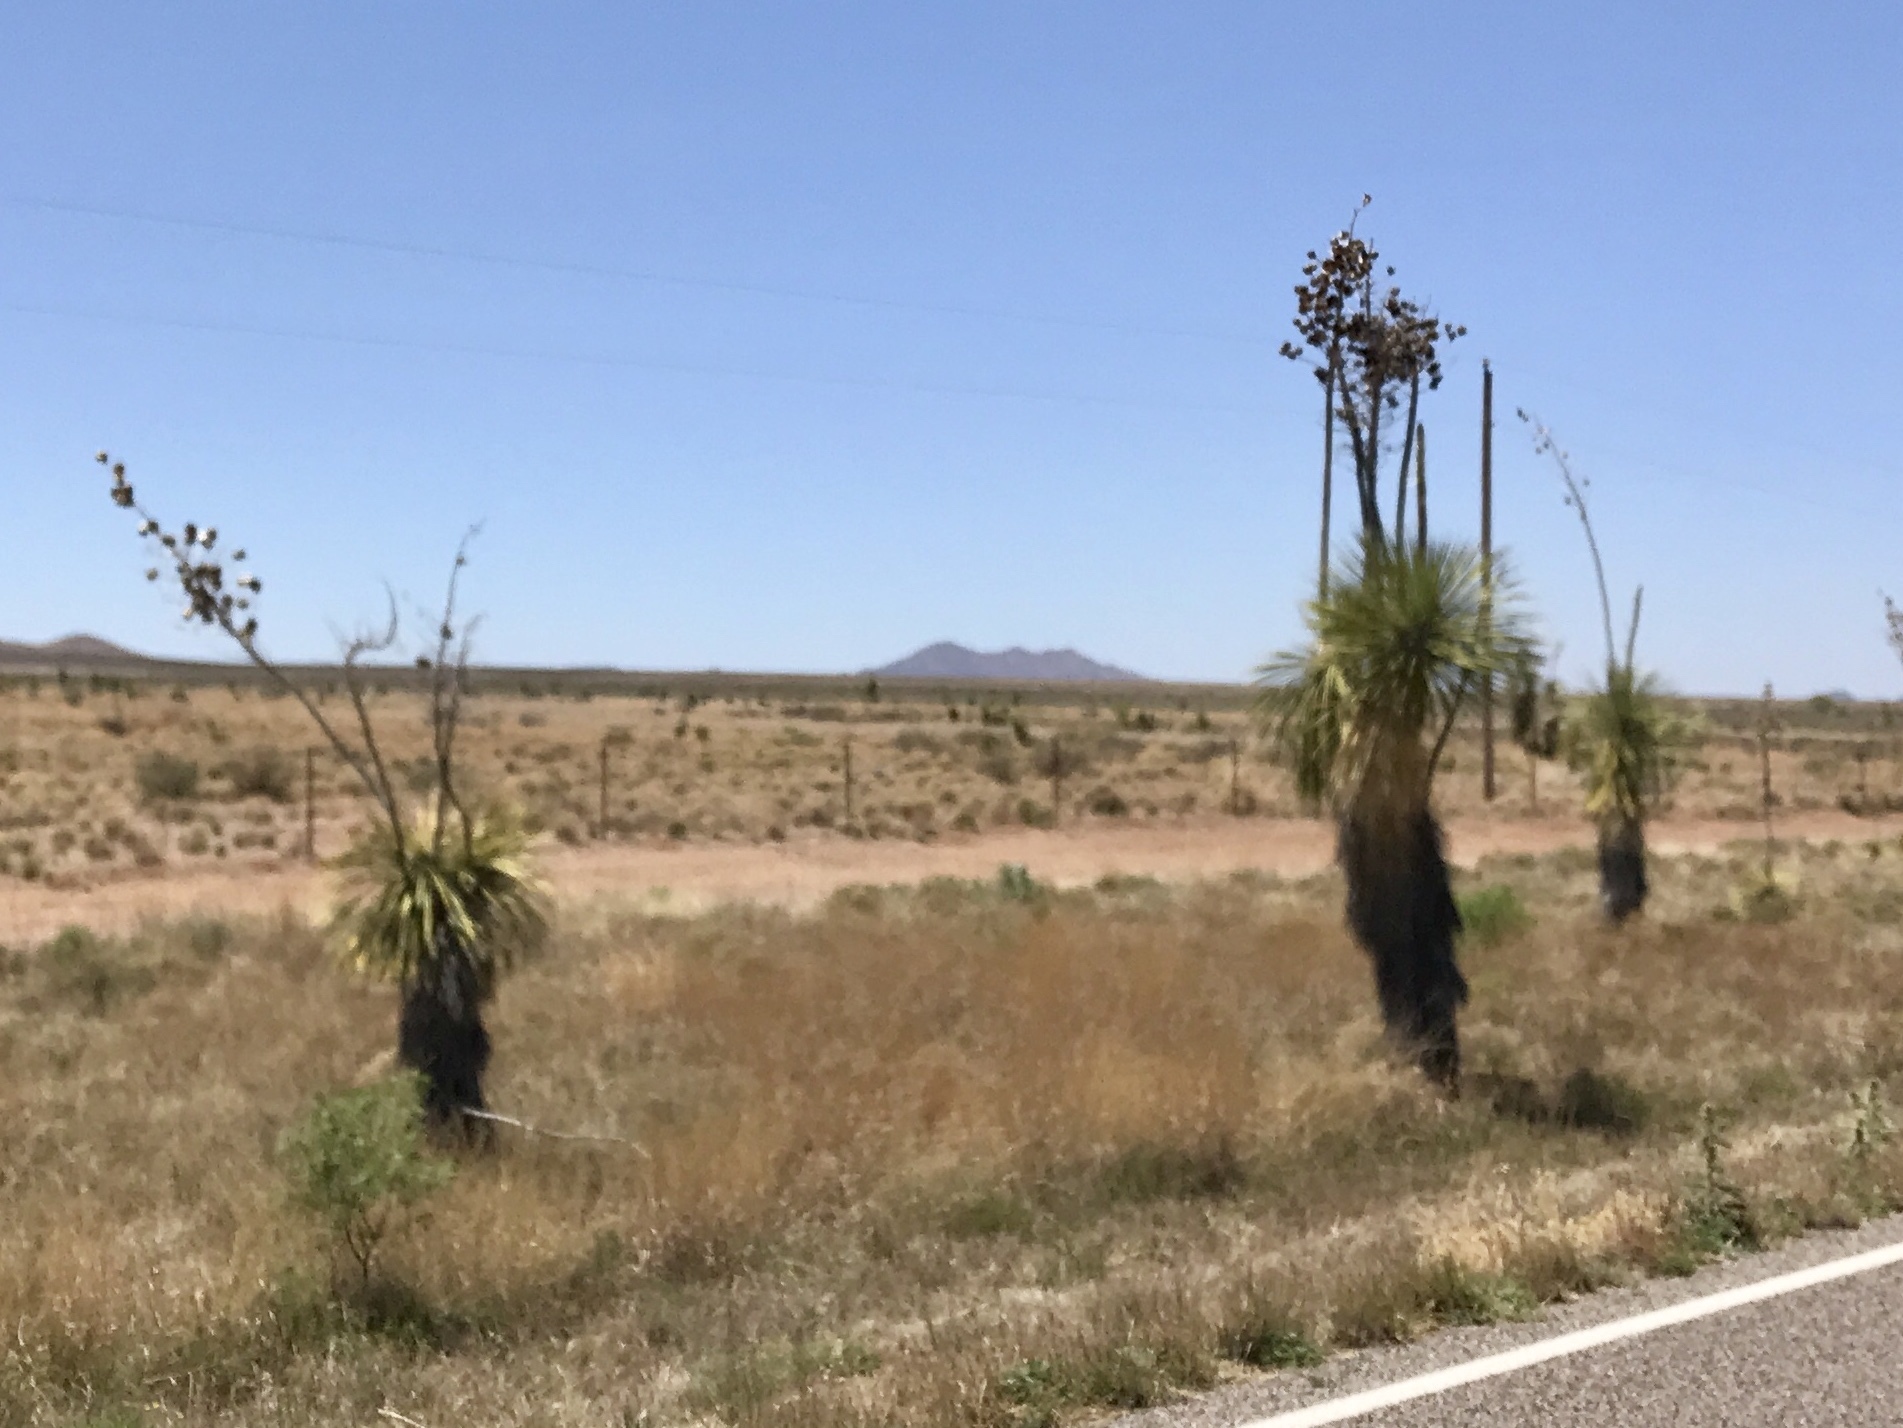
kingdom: Plantae
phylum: Tracheophyta
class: Liliopsida
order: Asparagales
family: Asparagaceae
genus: Yucca
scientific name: Yucca elata
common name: Palmella
